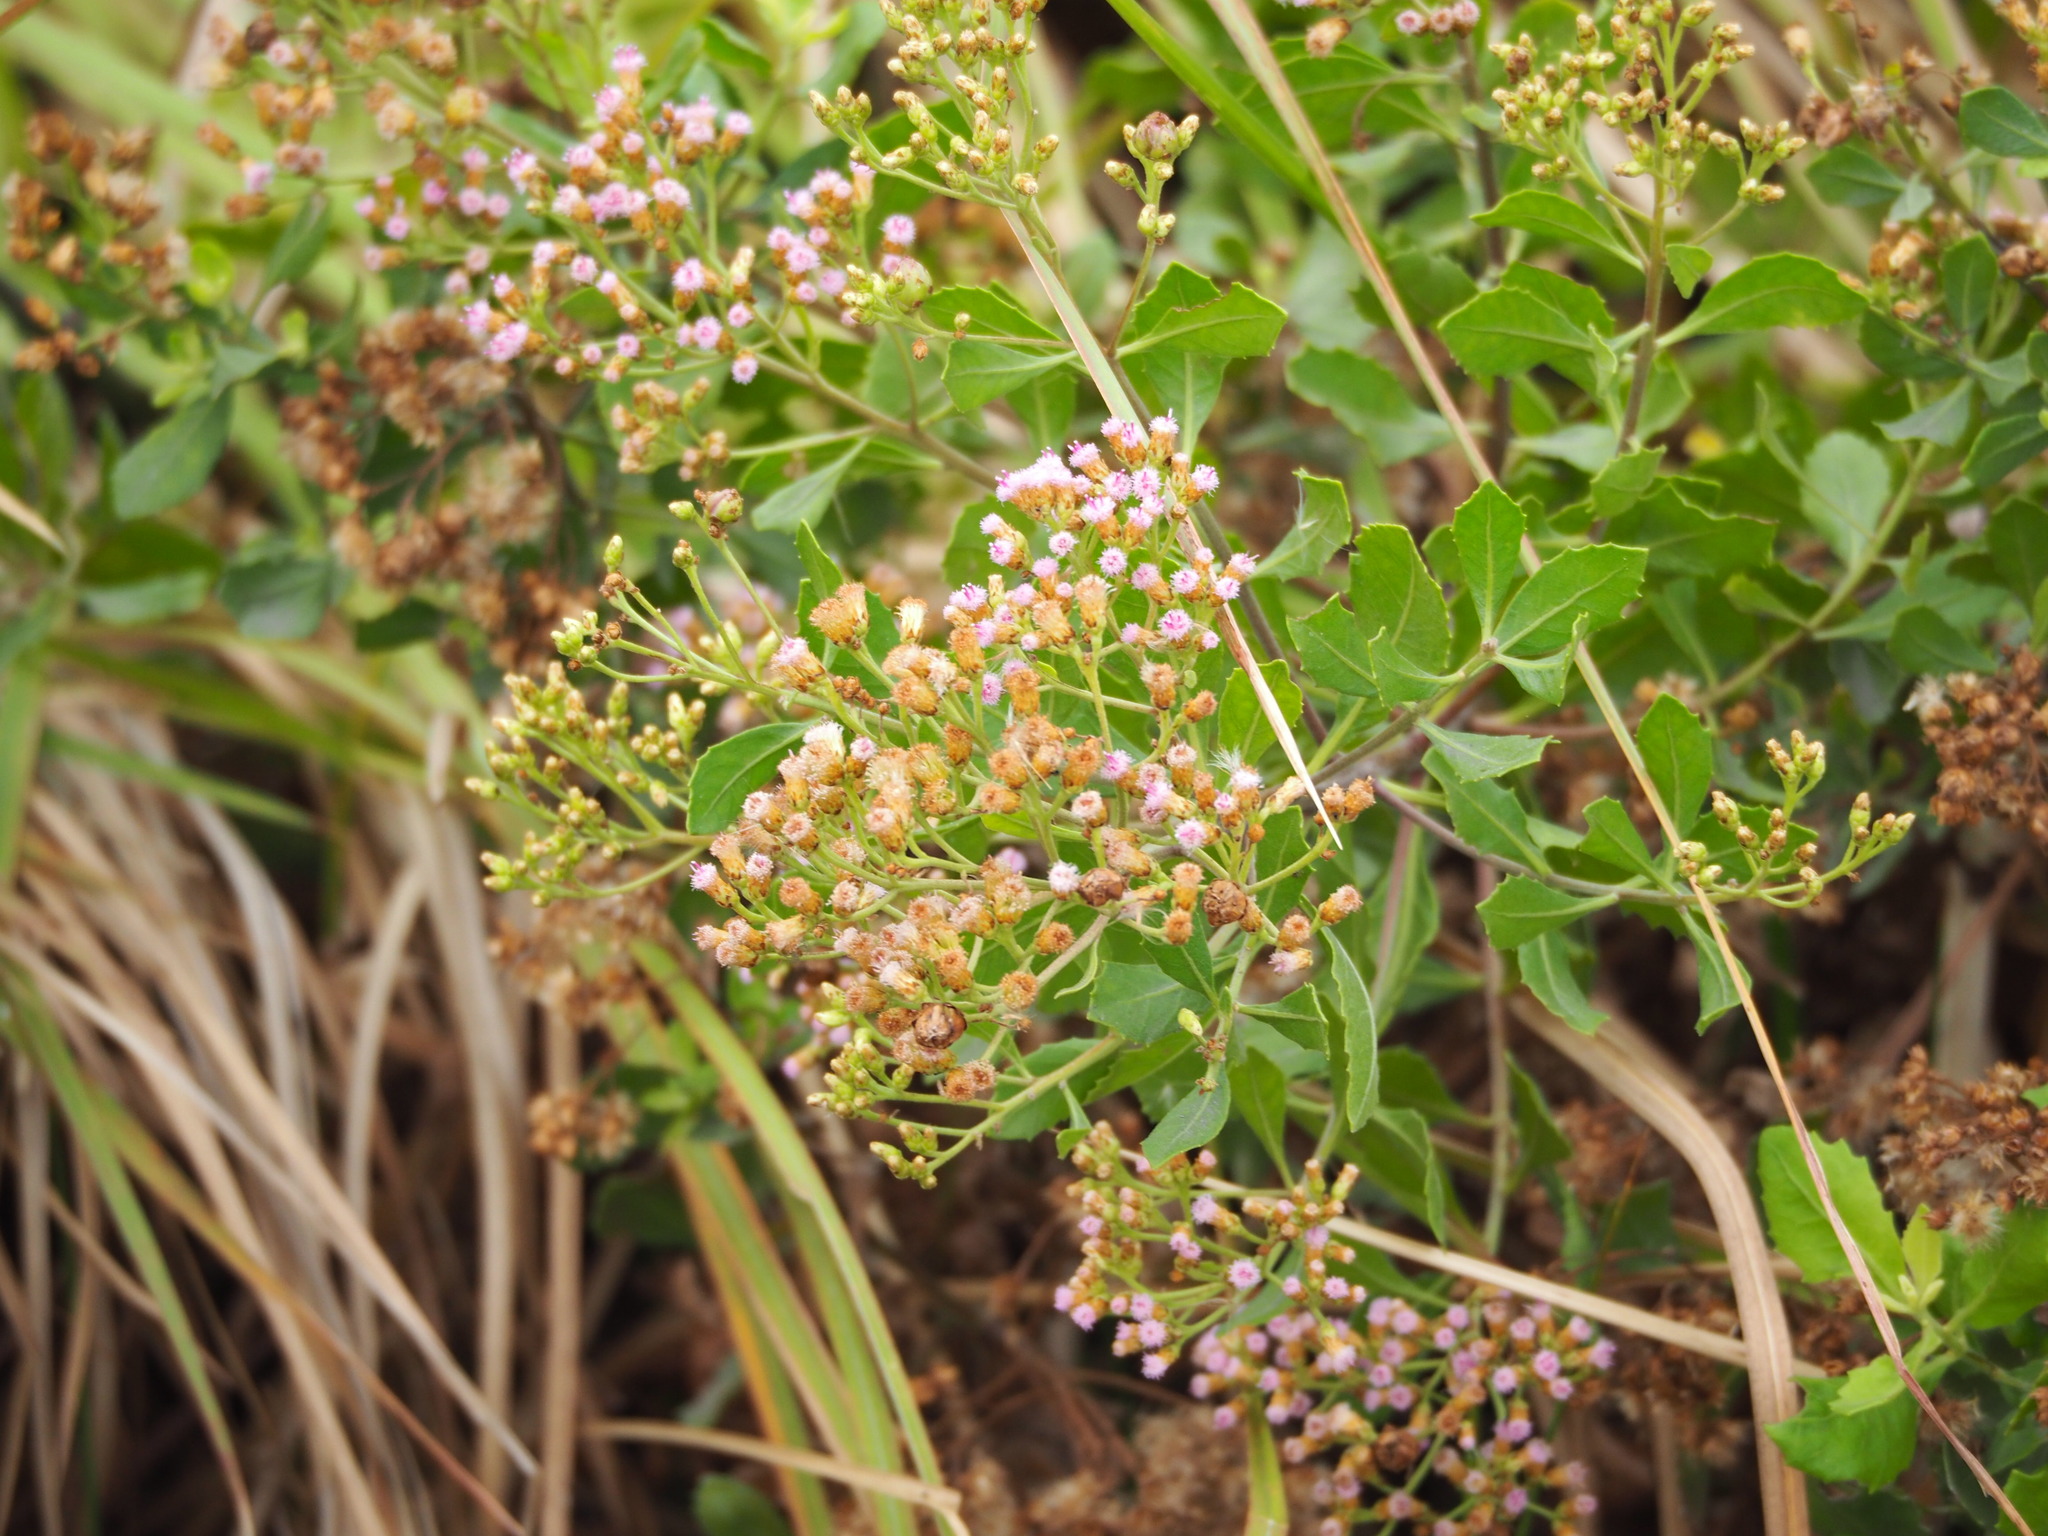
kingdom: Plantae
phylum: Tracheophyta
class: Magnoliopsida
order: Asterales
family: Asteraceae
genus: Pluchea
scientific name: Pluchea indica
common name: Indian fleabane
